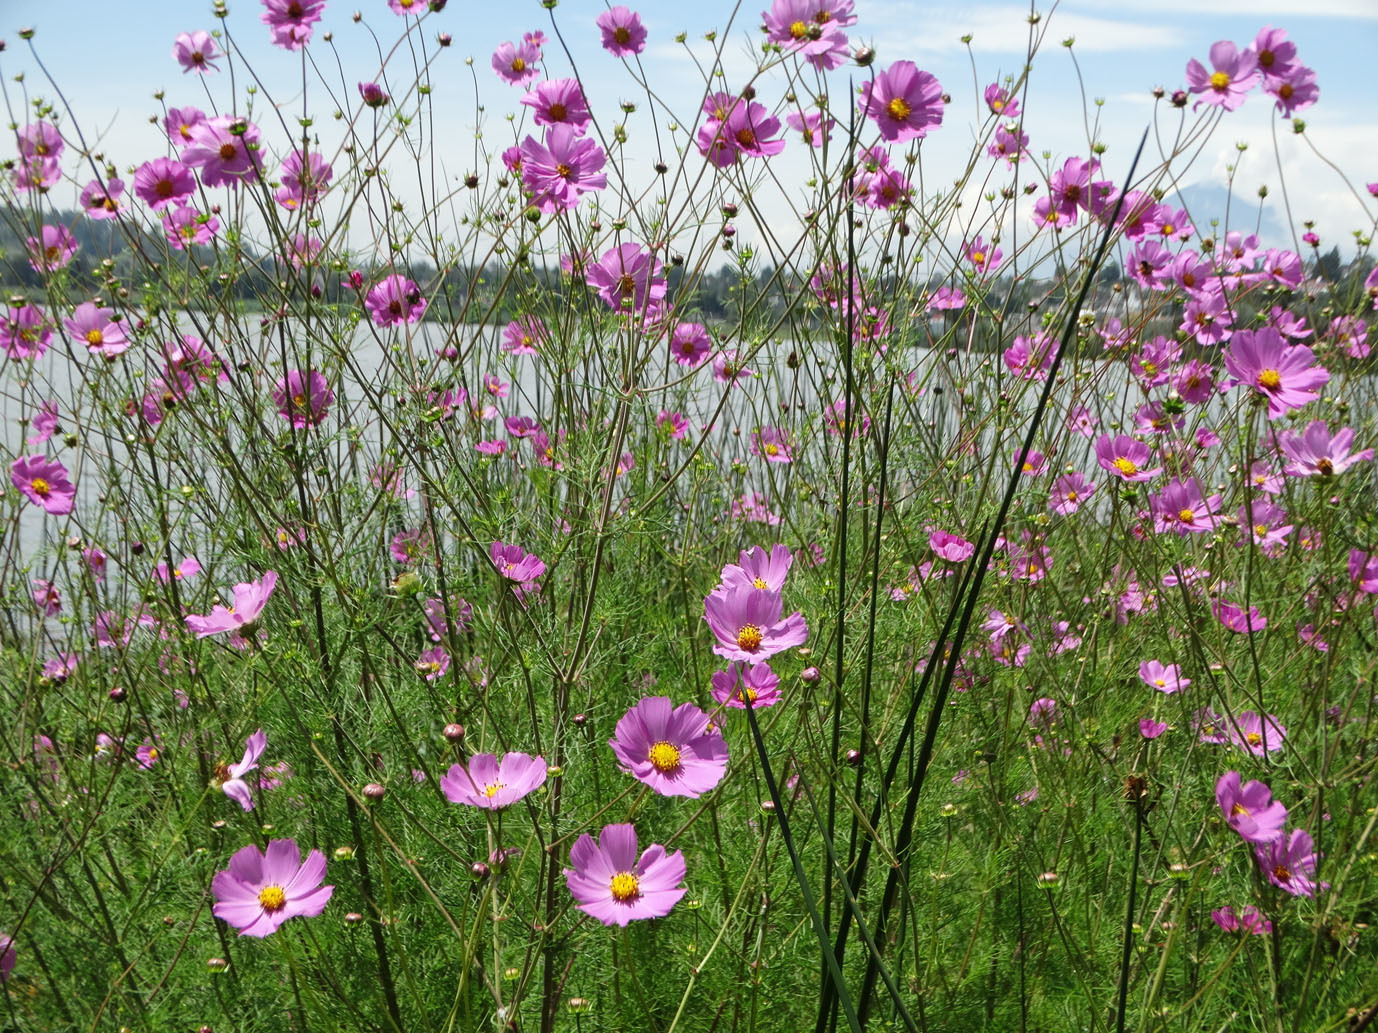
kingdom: Plantae
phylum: Tracheophyta
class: Magnoliopsida
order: Asterales
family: Asteraceae
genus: Cosmos
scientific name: Cosmos bipinnatus
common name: Garden cosmos
